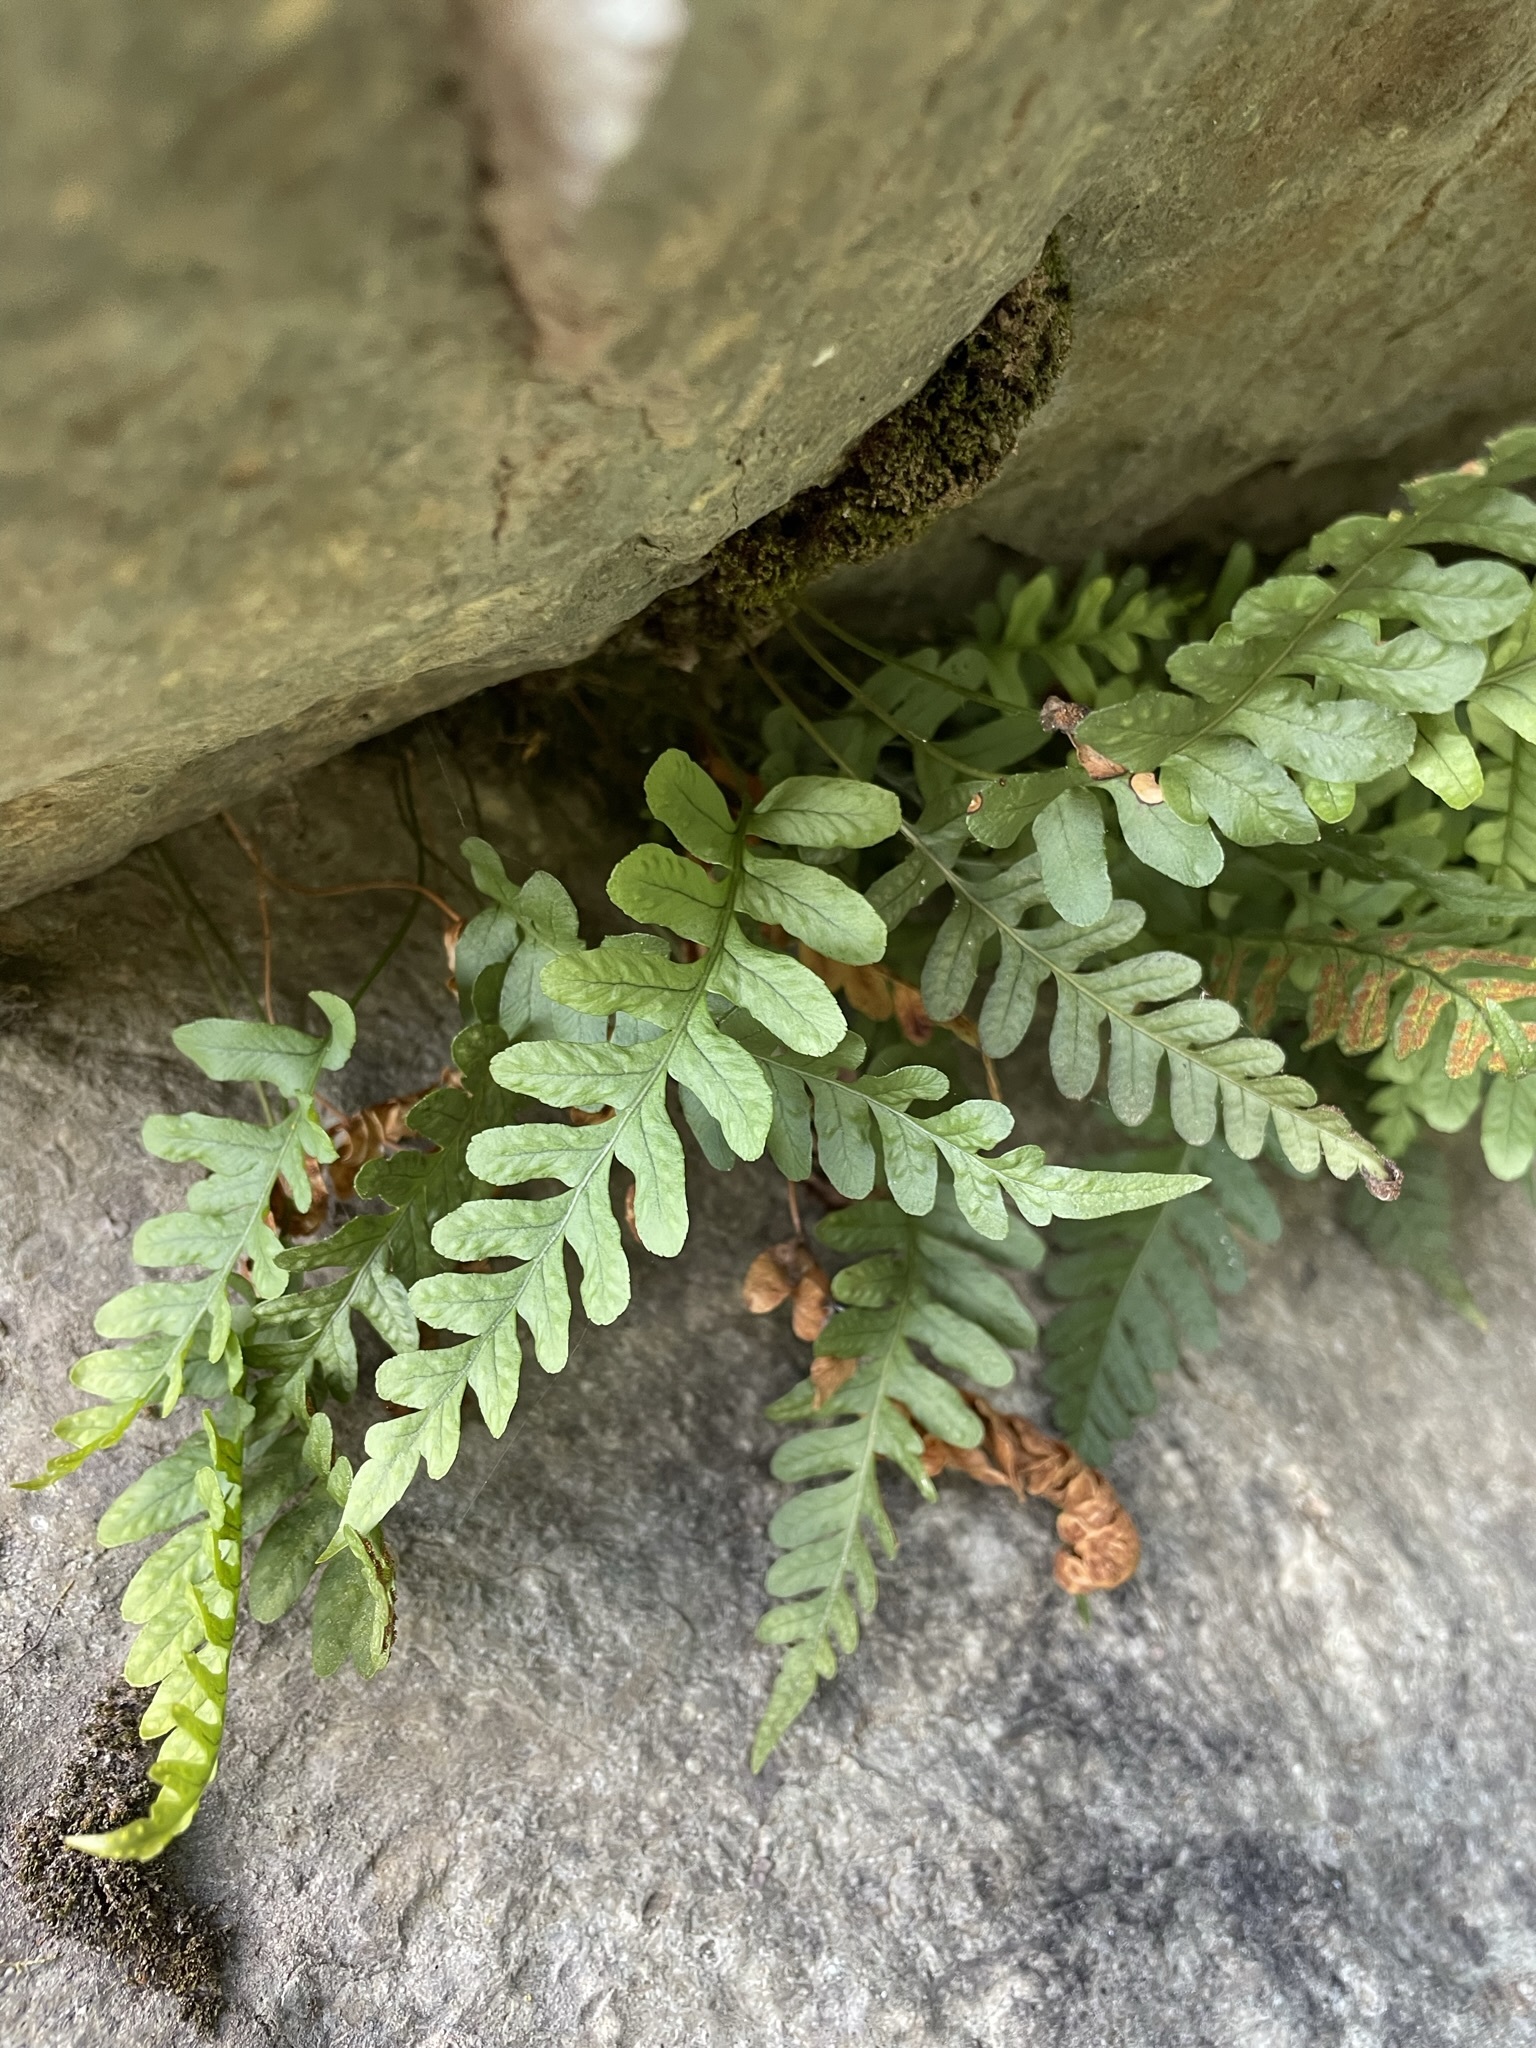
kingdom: Plantae
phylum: Tracheophyta
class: Polypodiopsida
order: Polypodiales
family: Polypodiaceae
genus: Polypodium
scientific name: Polypodium hesperium
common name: Western polypody
